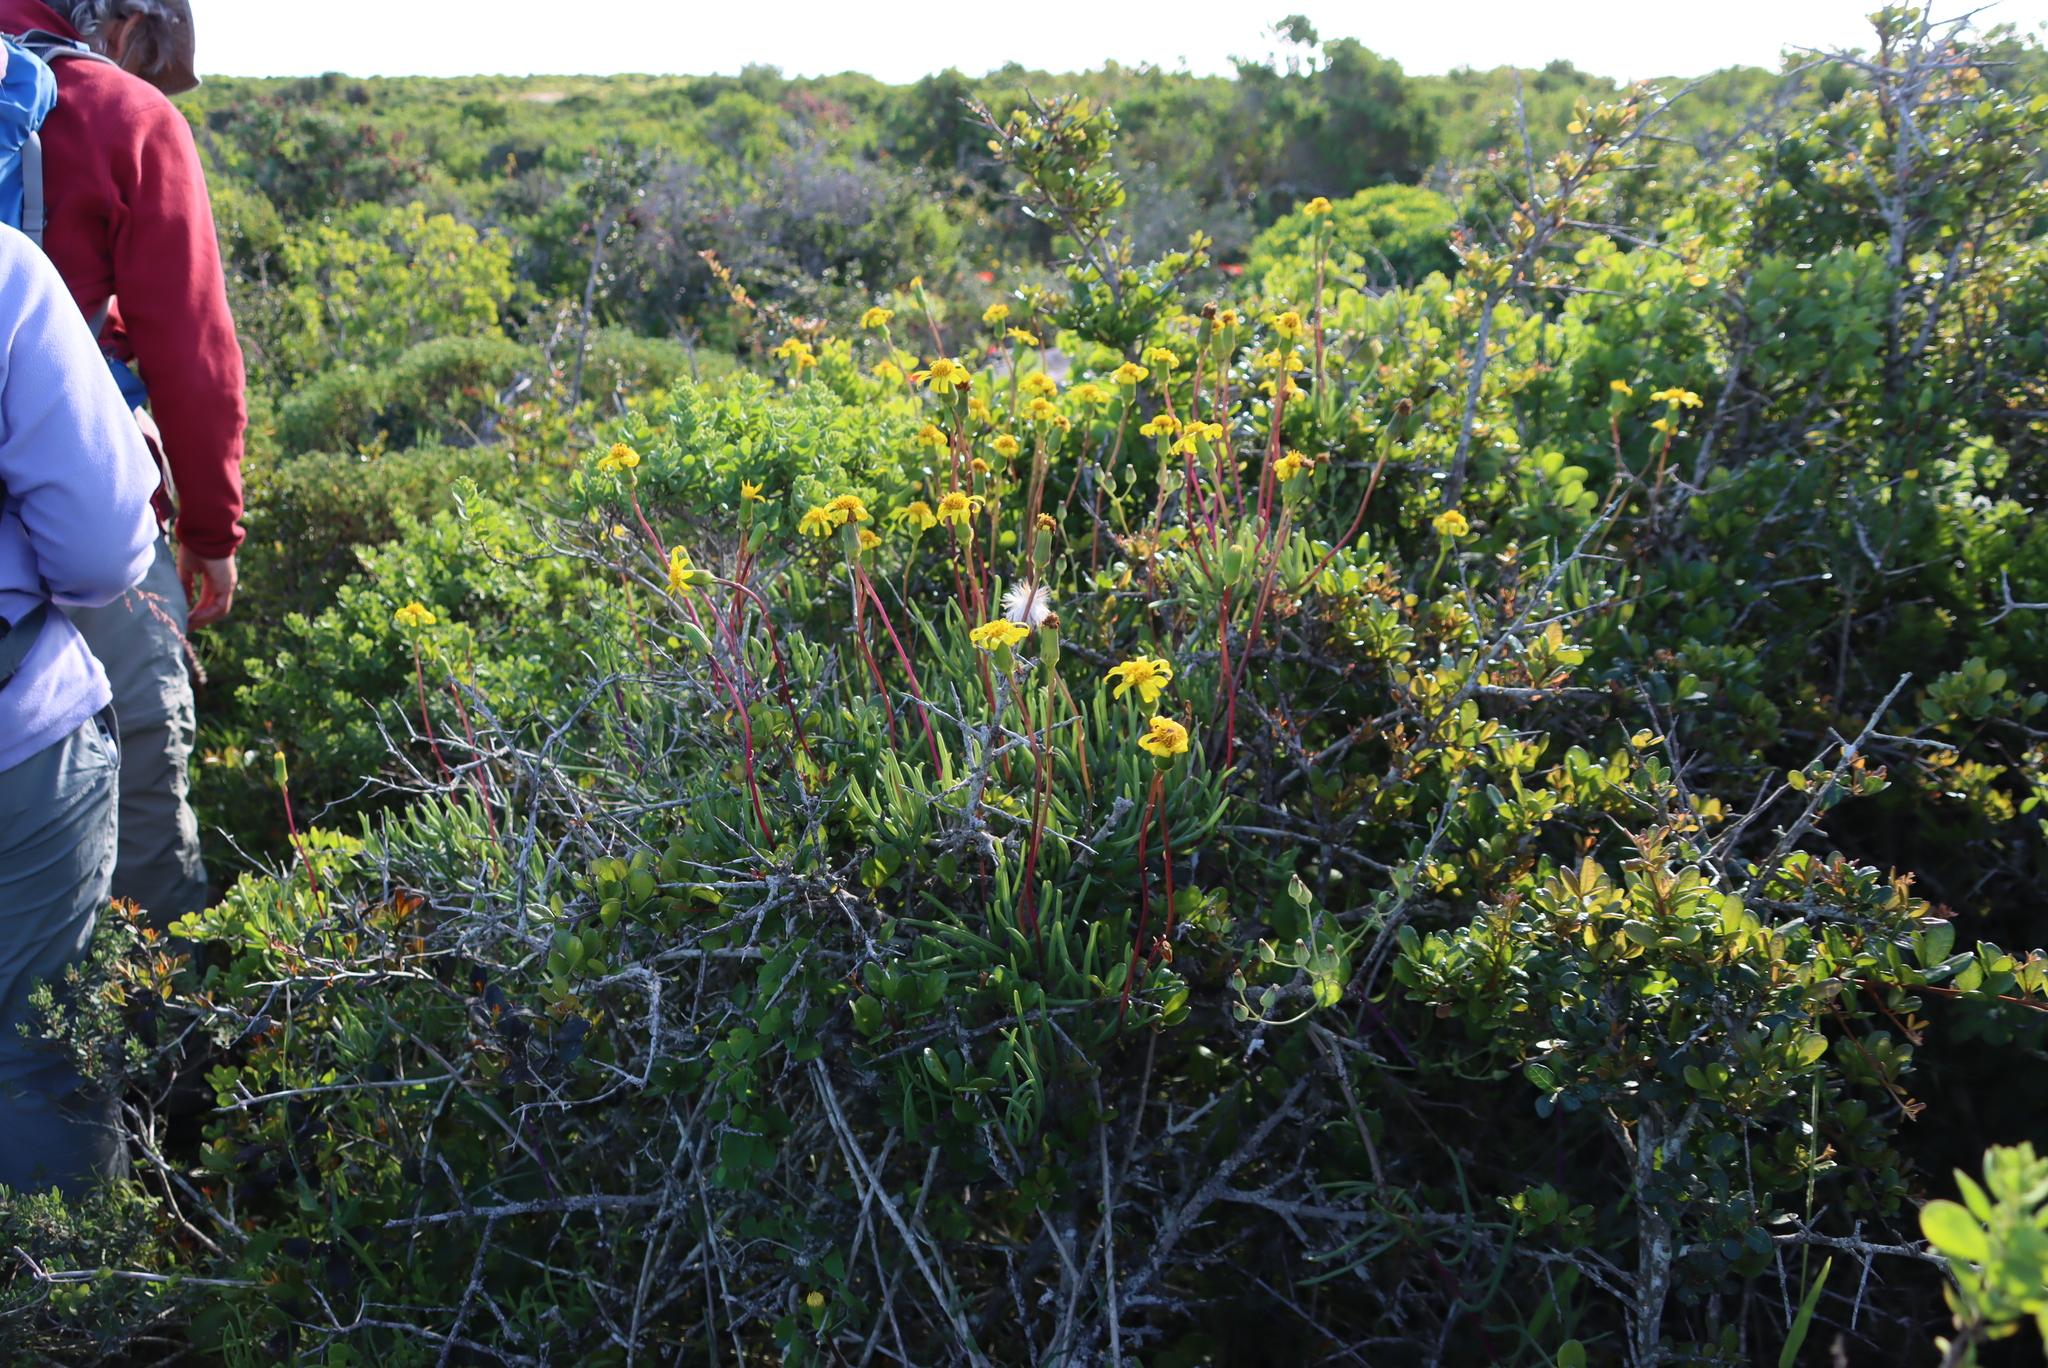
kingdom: Plantae
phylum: Tracheophyta
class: Magnoliopsida
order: Asterales
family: Asteraceae
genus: Senecio
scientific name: Senecio alooides
